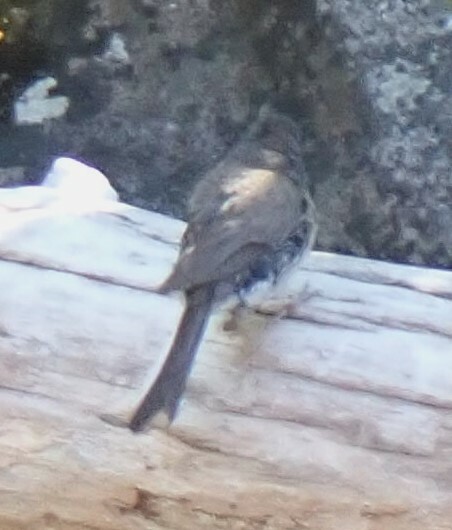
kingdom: Animalia
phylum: Chordata
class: Aves
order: Passeriformes
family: Passerellidae
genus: Junco
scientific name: Junco hyemalis
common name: Dark-eyed junco
